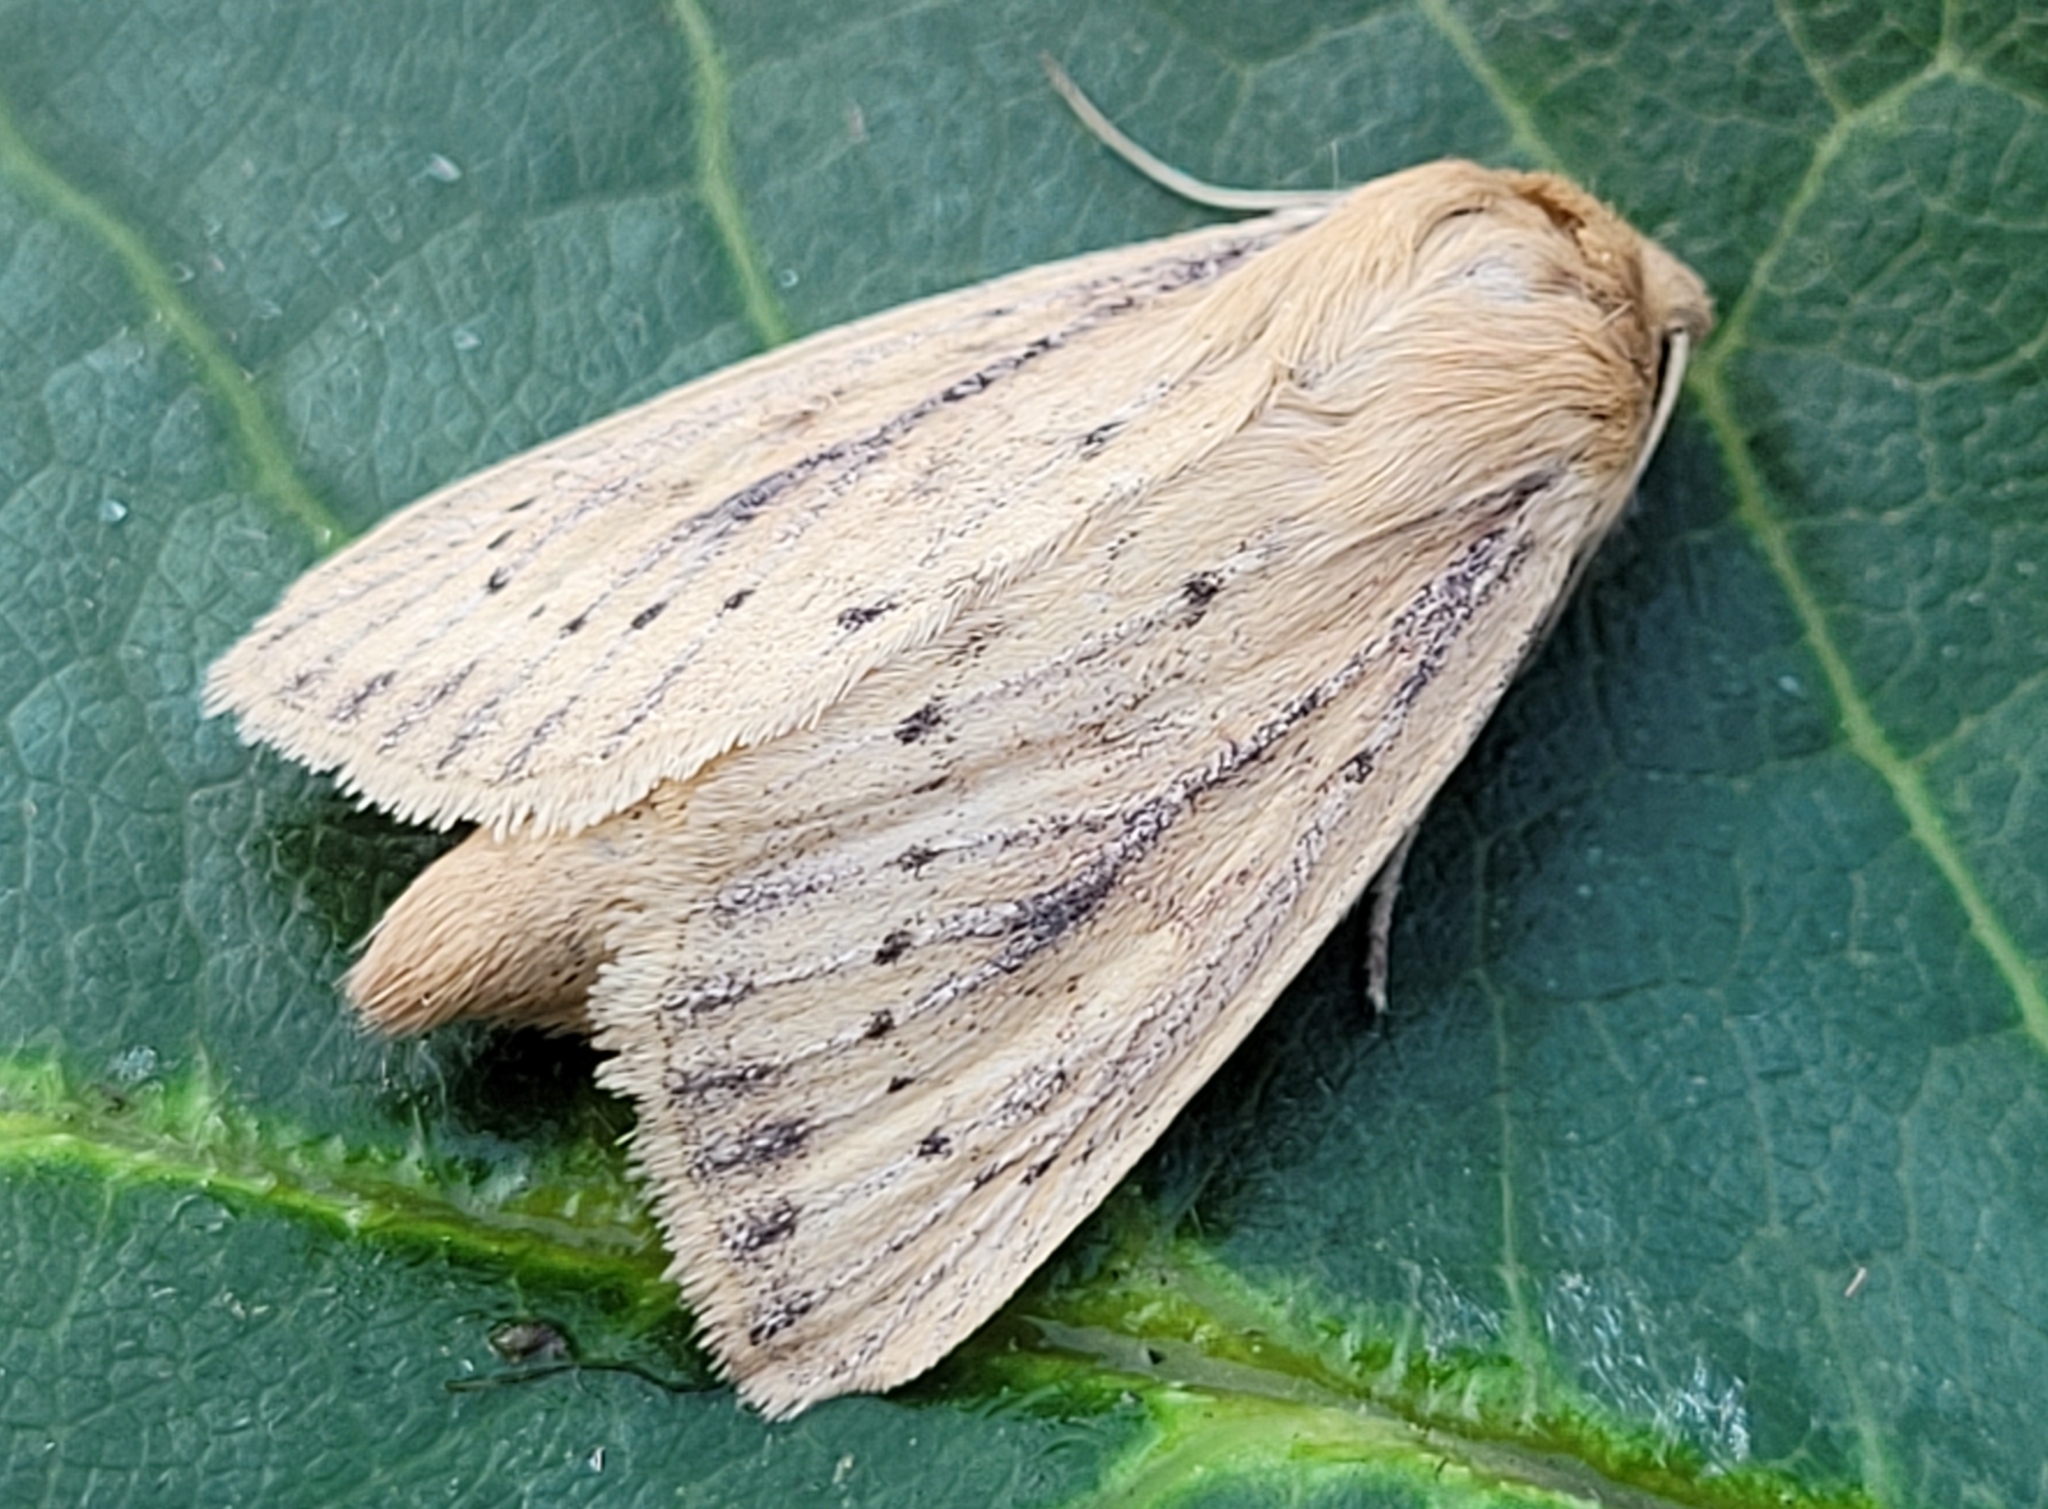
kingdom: Animalia
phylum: Arthropoda
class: Insecta
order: Lepidoptera
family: Noctuidae
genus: Globia
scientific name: Globia subflava
